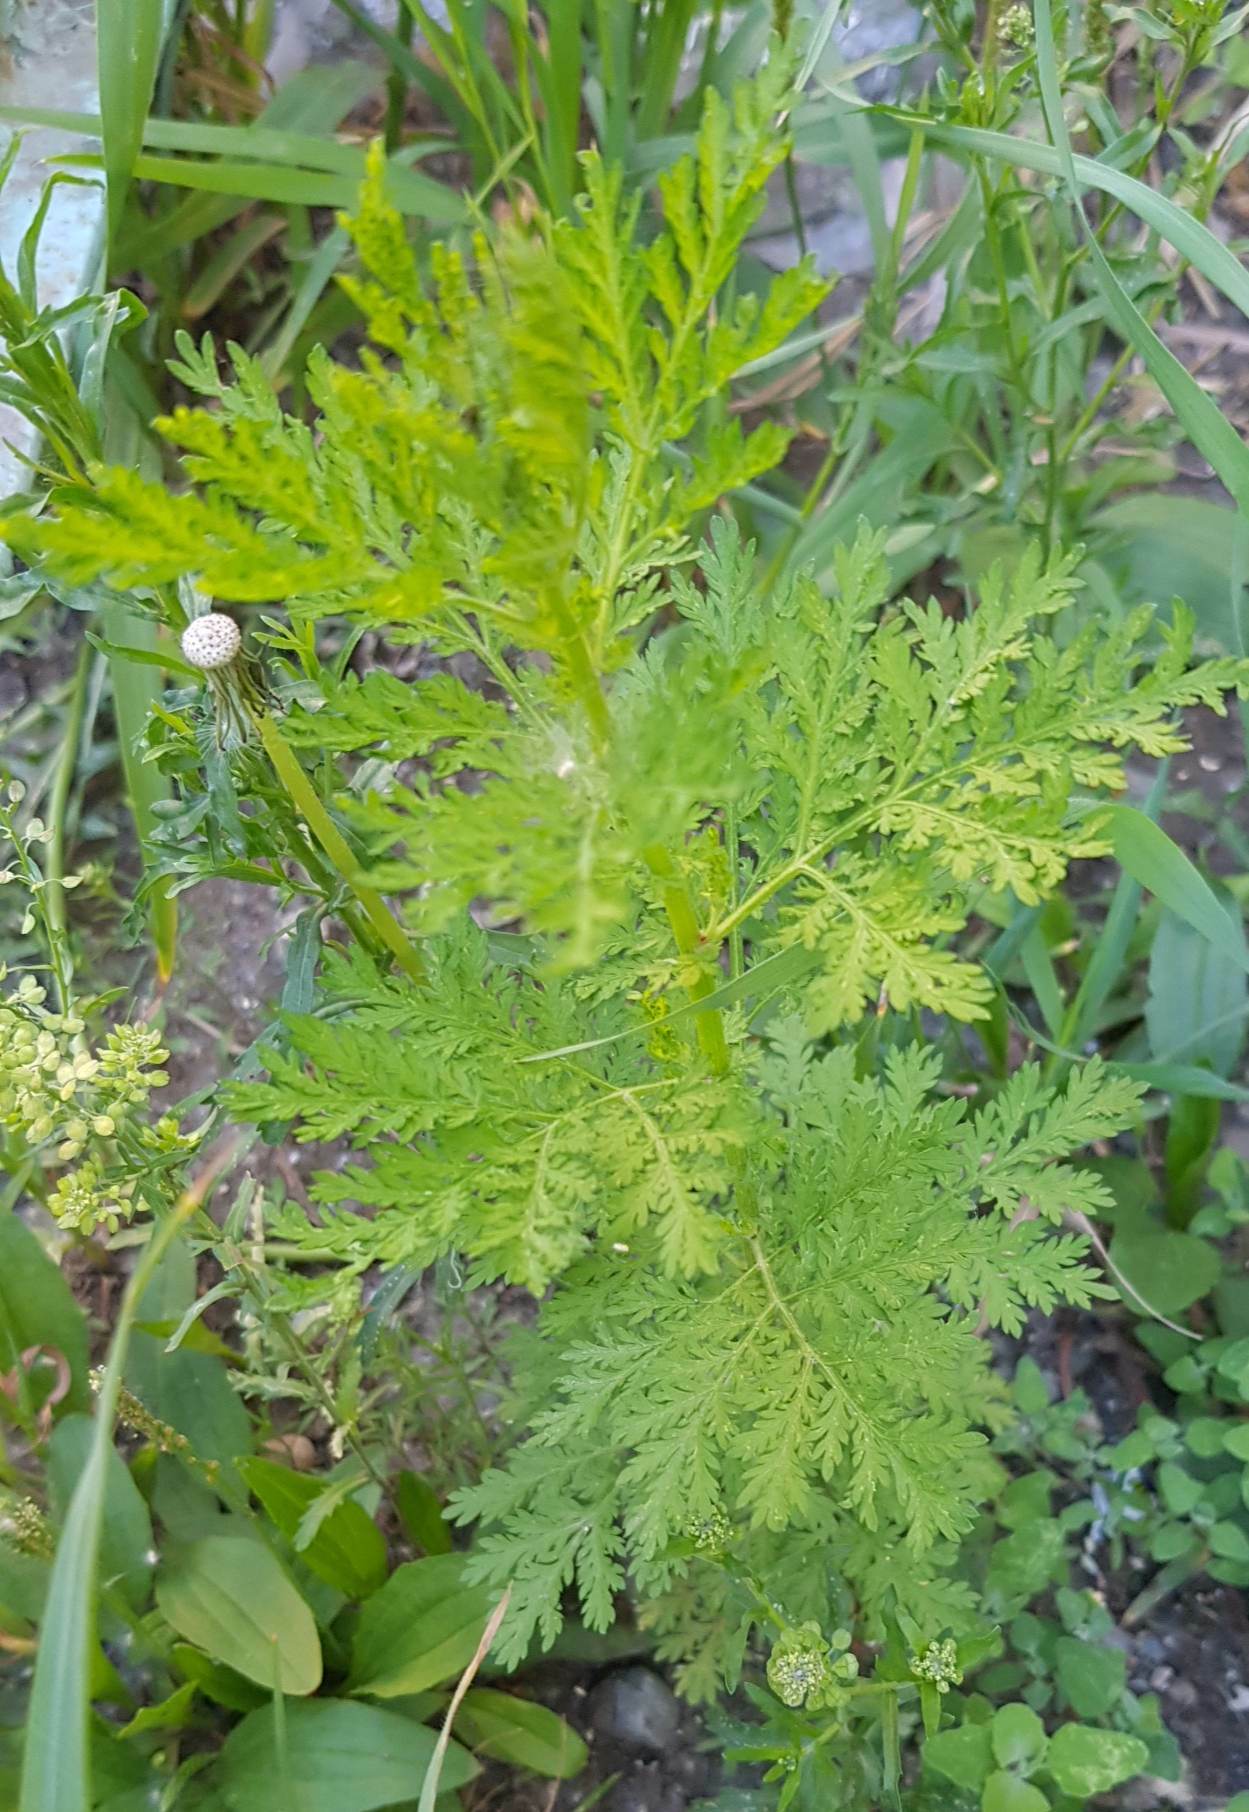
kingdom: Plantae
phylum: Tracheophyta
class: Magnoliopsida
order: Asterales
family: Asteraceae
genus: Artemisia
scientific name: Artemisia annua
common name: Sweet sagewort
